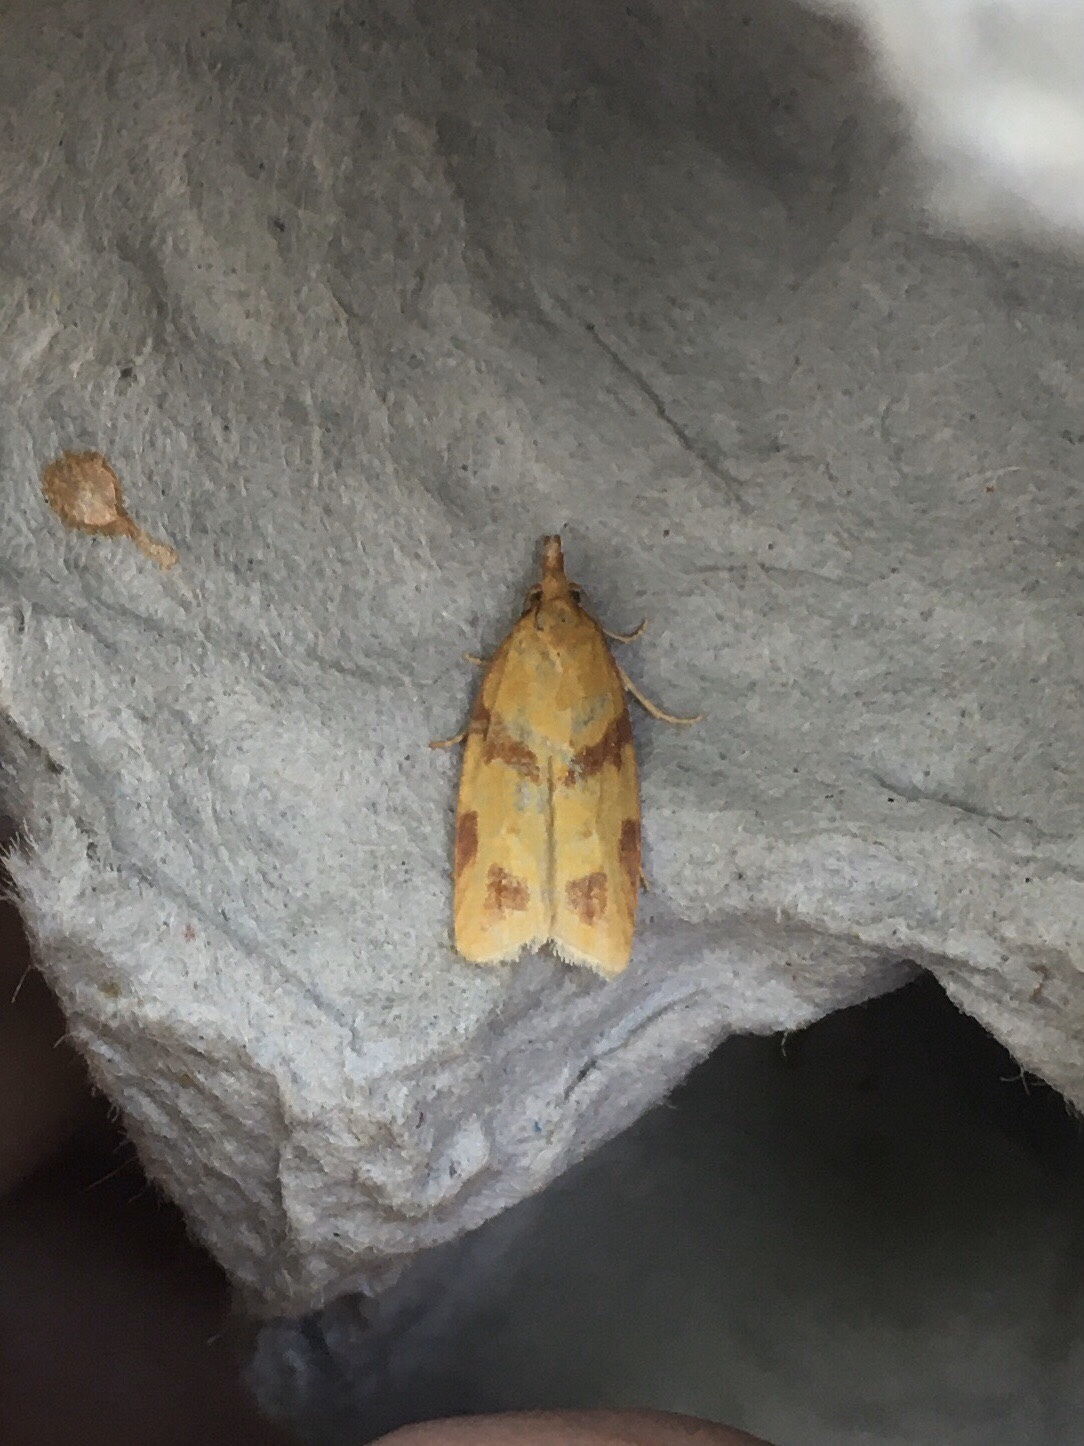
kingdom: Animalia
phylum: Arthropoda
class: Insecta
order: Lepidoptera
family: Tortricidae
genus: Sparganothis
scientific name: Sparganothis unifasciana
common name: One-lined sparganothis moth
